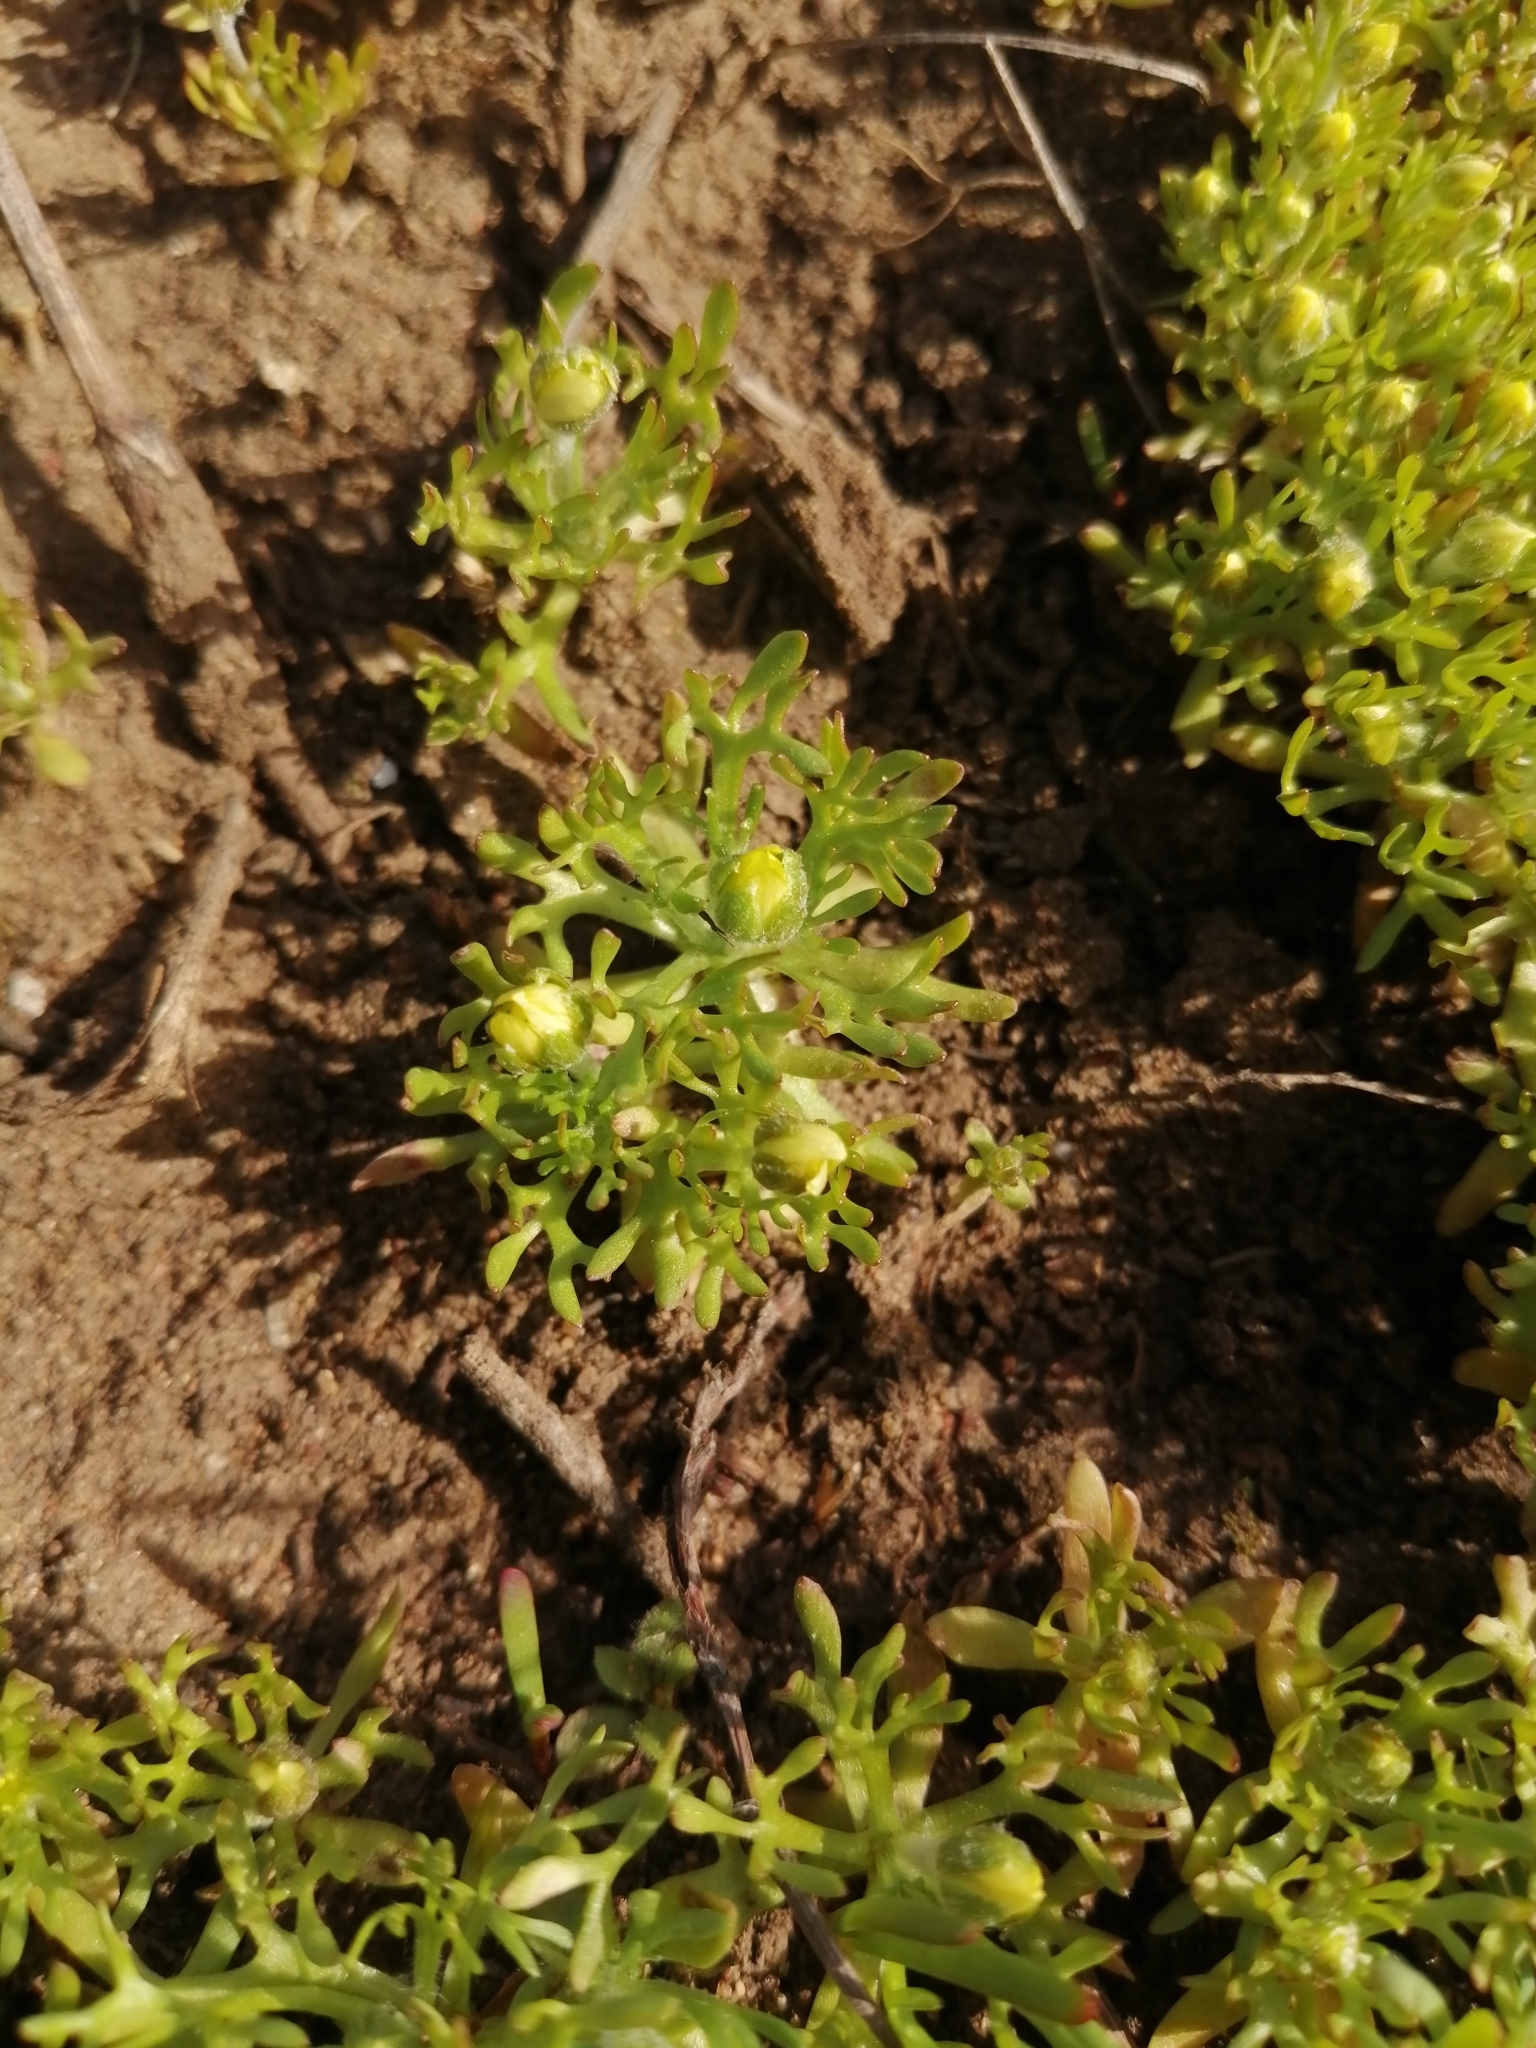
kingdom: Plantae
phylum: Tracheophyta
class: Magnoliopsida
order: Ranunculales
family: Ranunculaceae
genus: Ceratocephala
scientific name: Ceratocephala orthoceras
